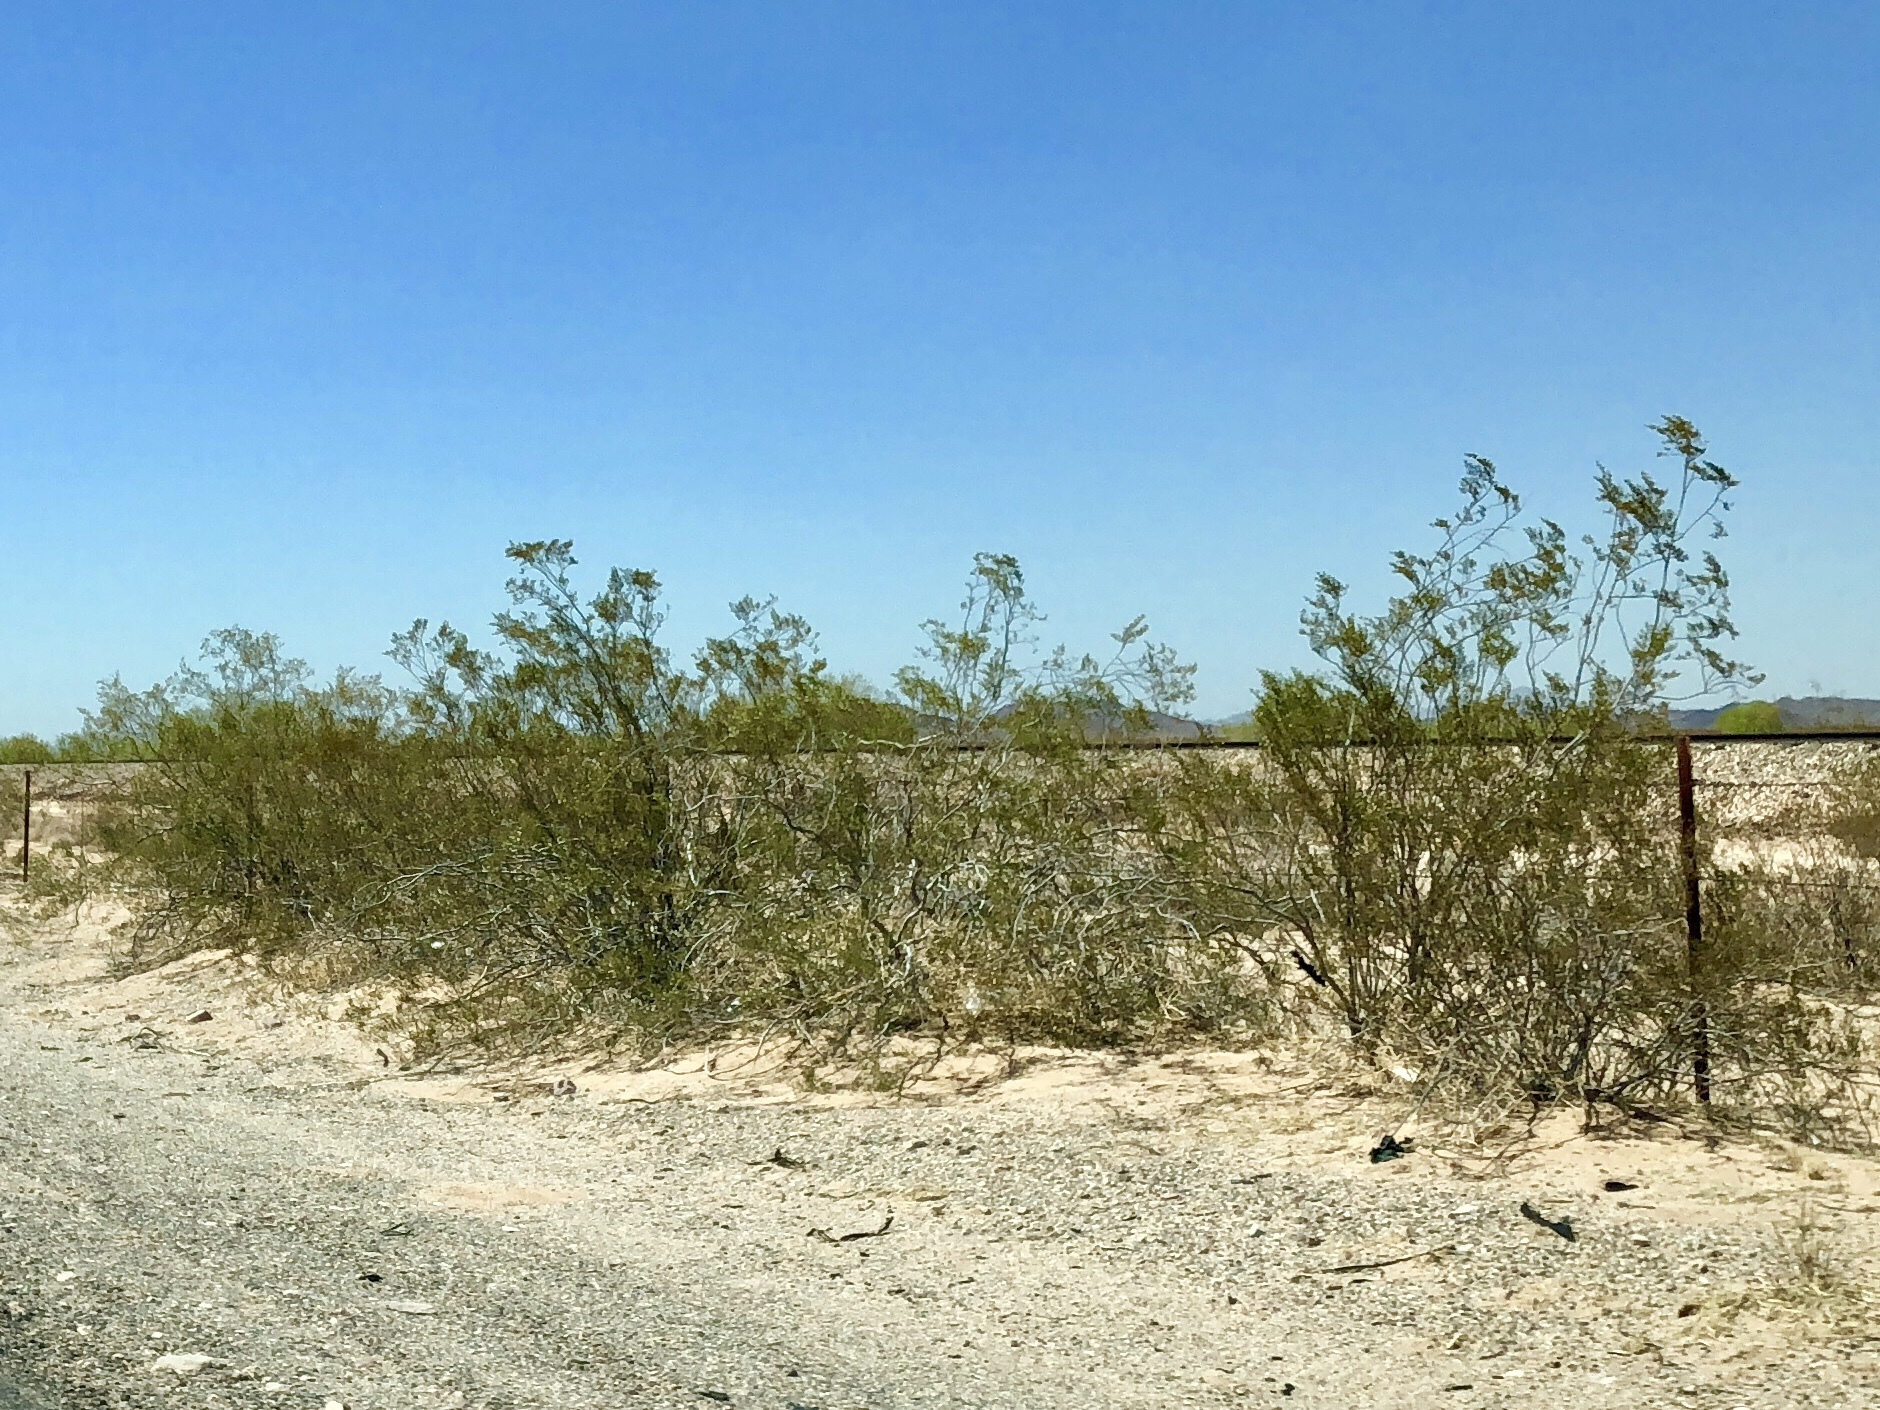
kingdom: Plantae
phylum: Tracheophyta
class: Magnoliopsida
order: Zygophyllales
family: Zygophyllaceae
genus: Larrea
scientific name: Larrea tridentata
